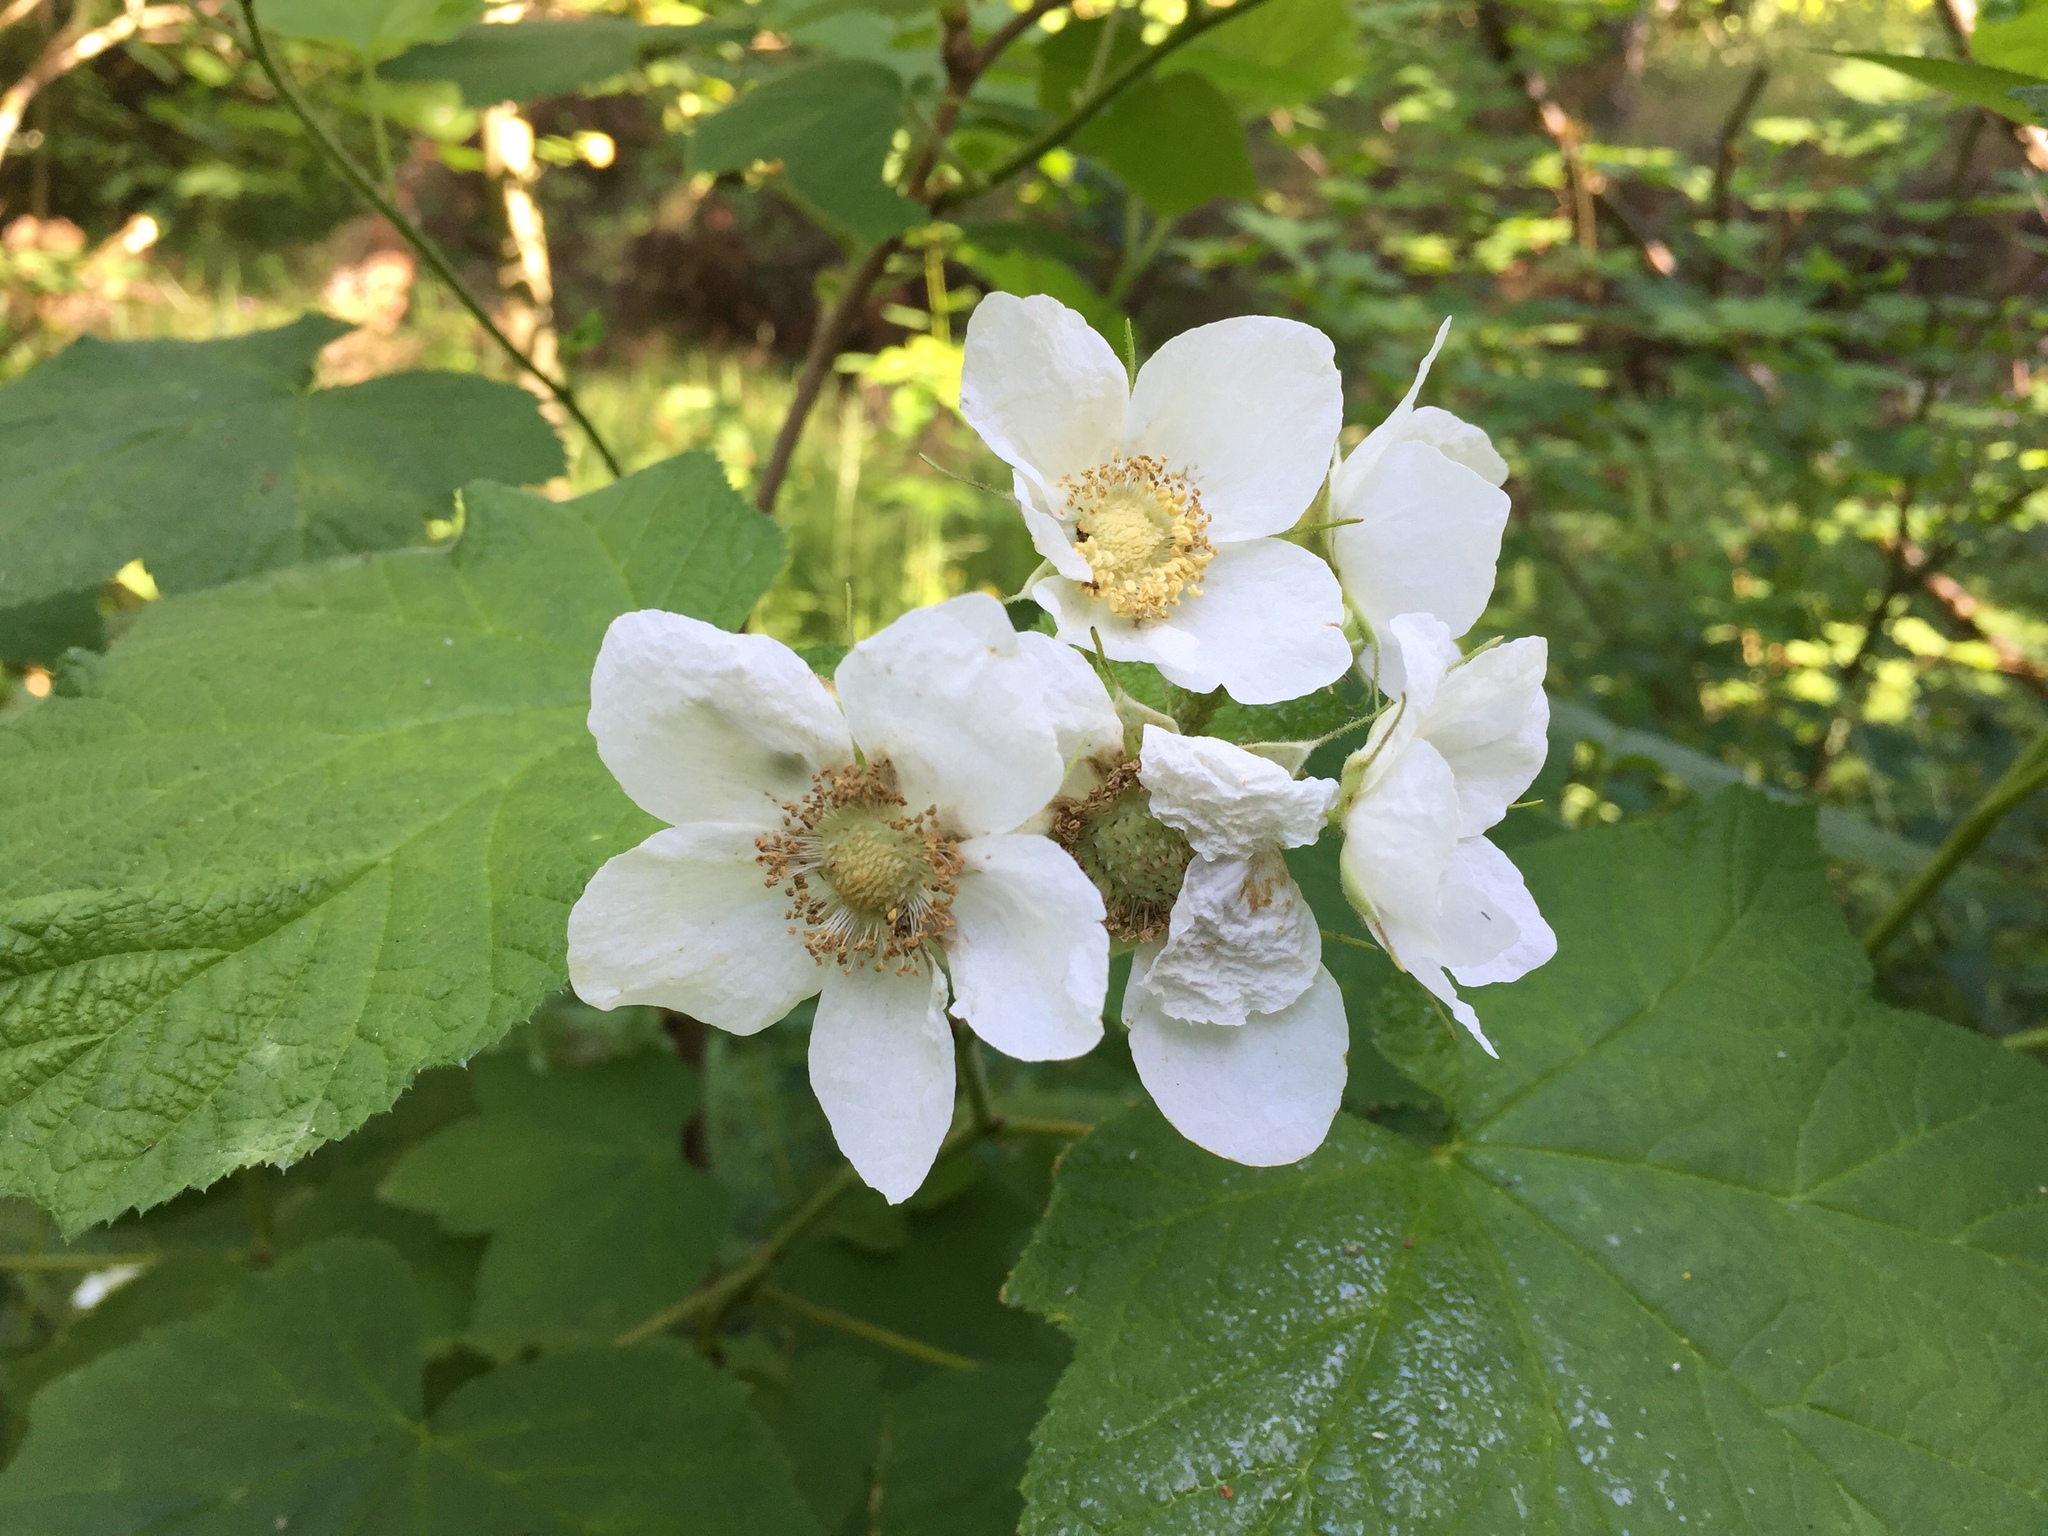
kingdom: Plantae
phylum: Tracheophyta
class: Magnoliopsida
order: Rosales
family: Rosaceae
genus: Rubus
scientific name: Rubus parviflorus
